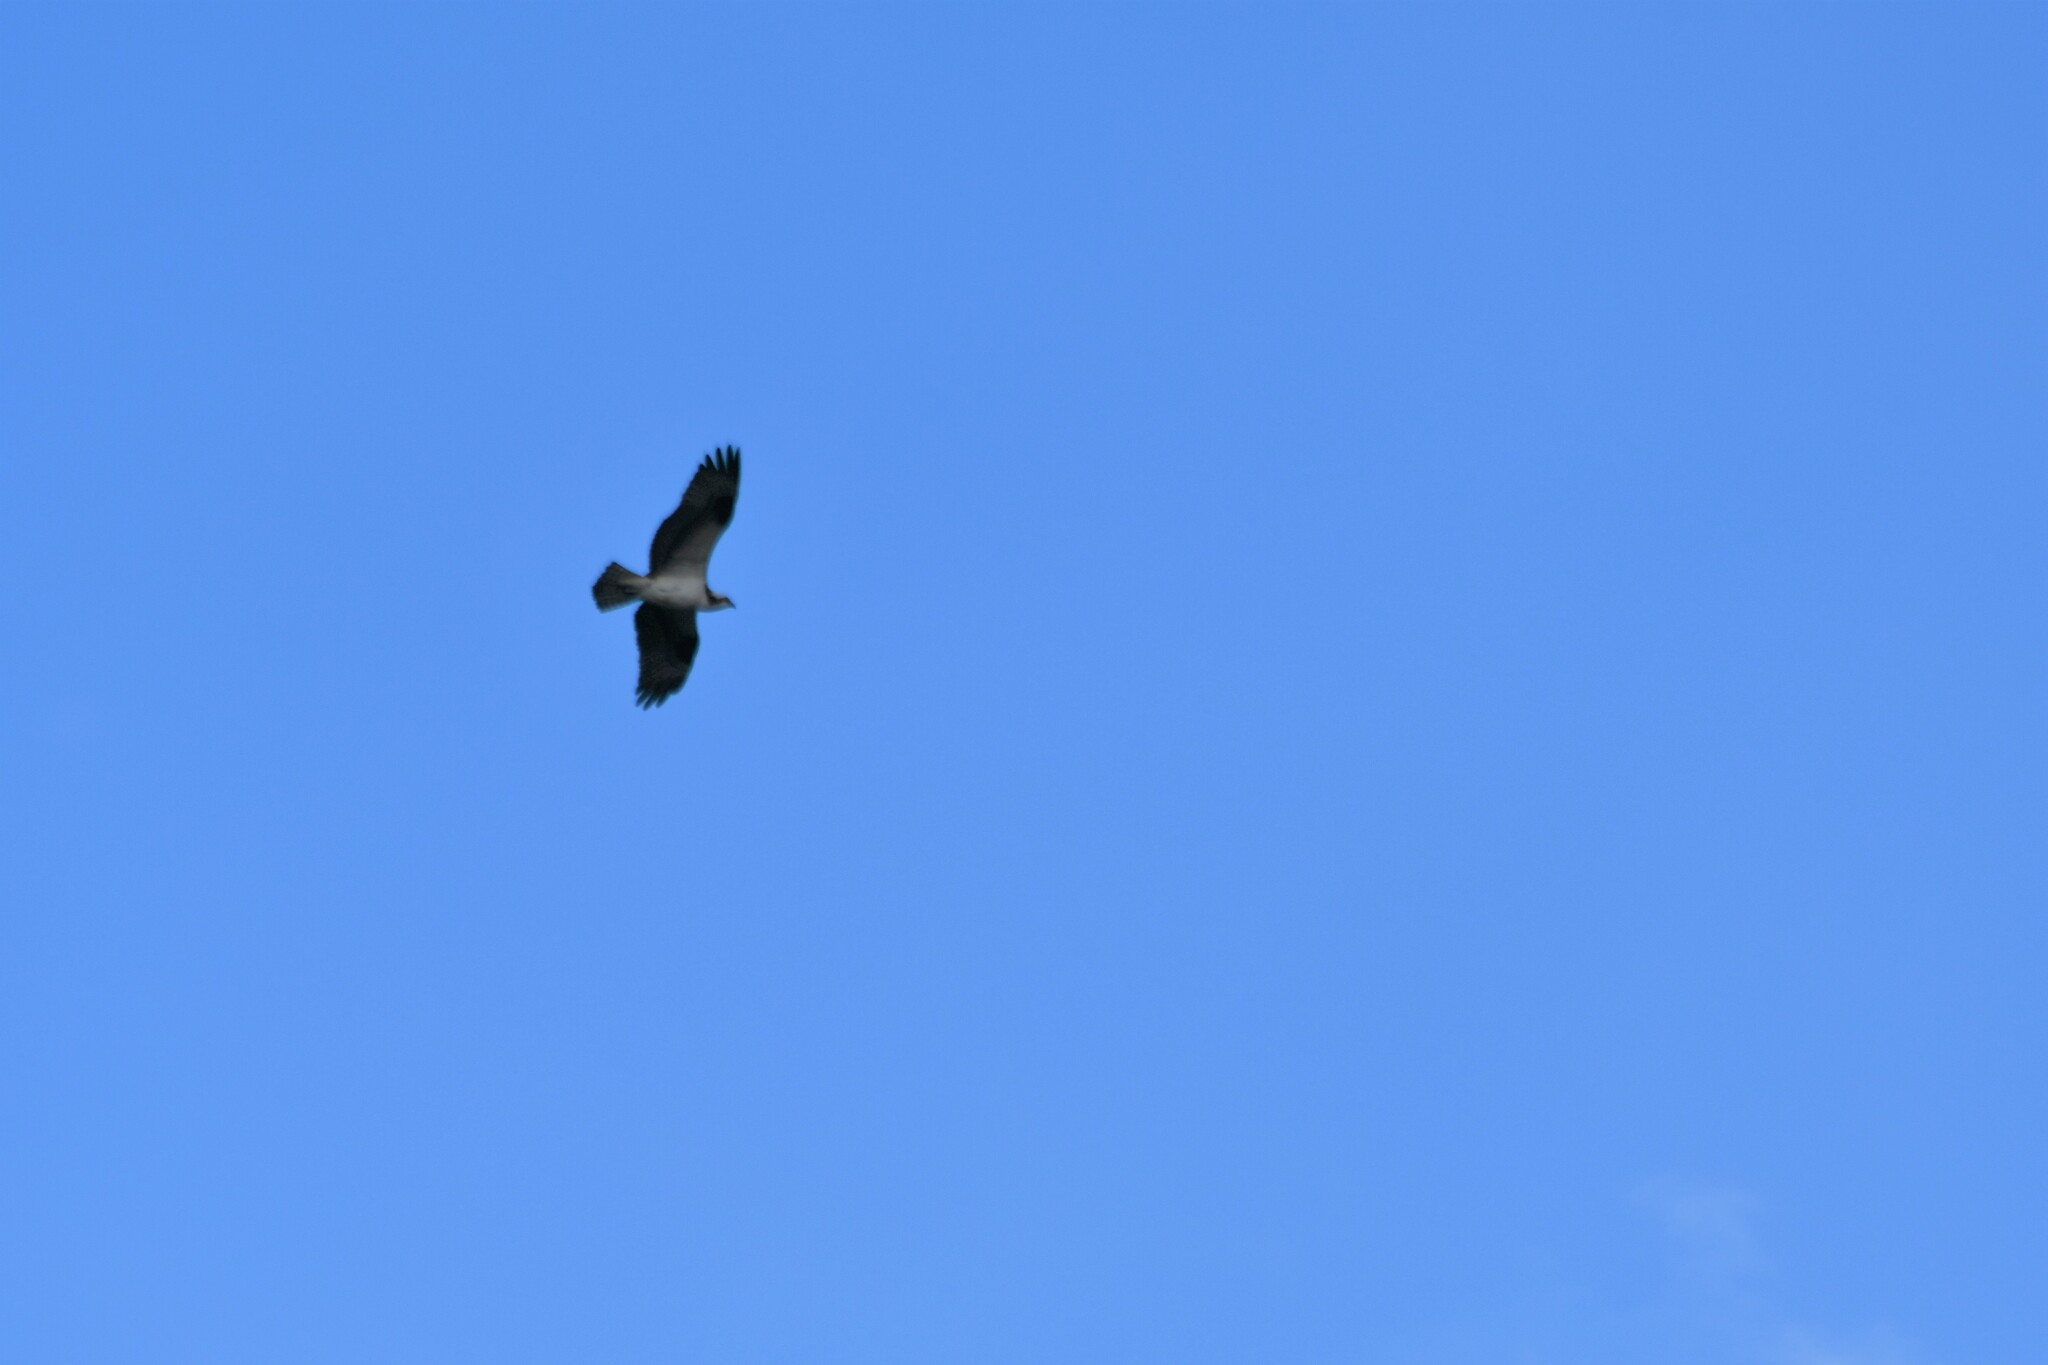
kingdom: Animalia
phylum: Chordata
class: Aves
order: Accipitriformes
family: Pandionidae
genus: Pandion
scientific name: Pandion haliaetus
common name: Osprey
